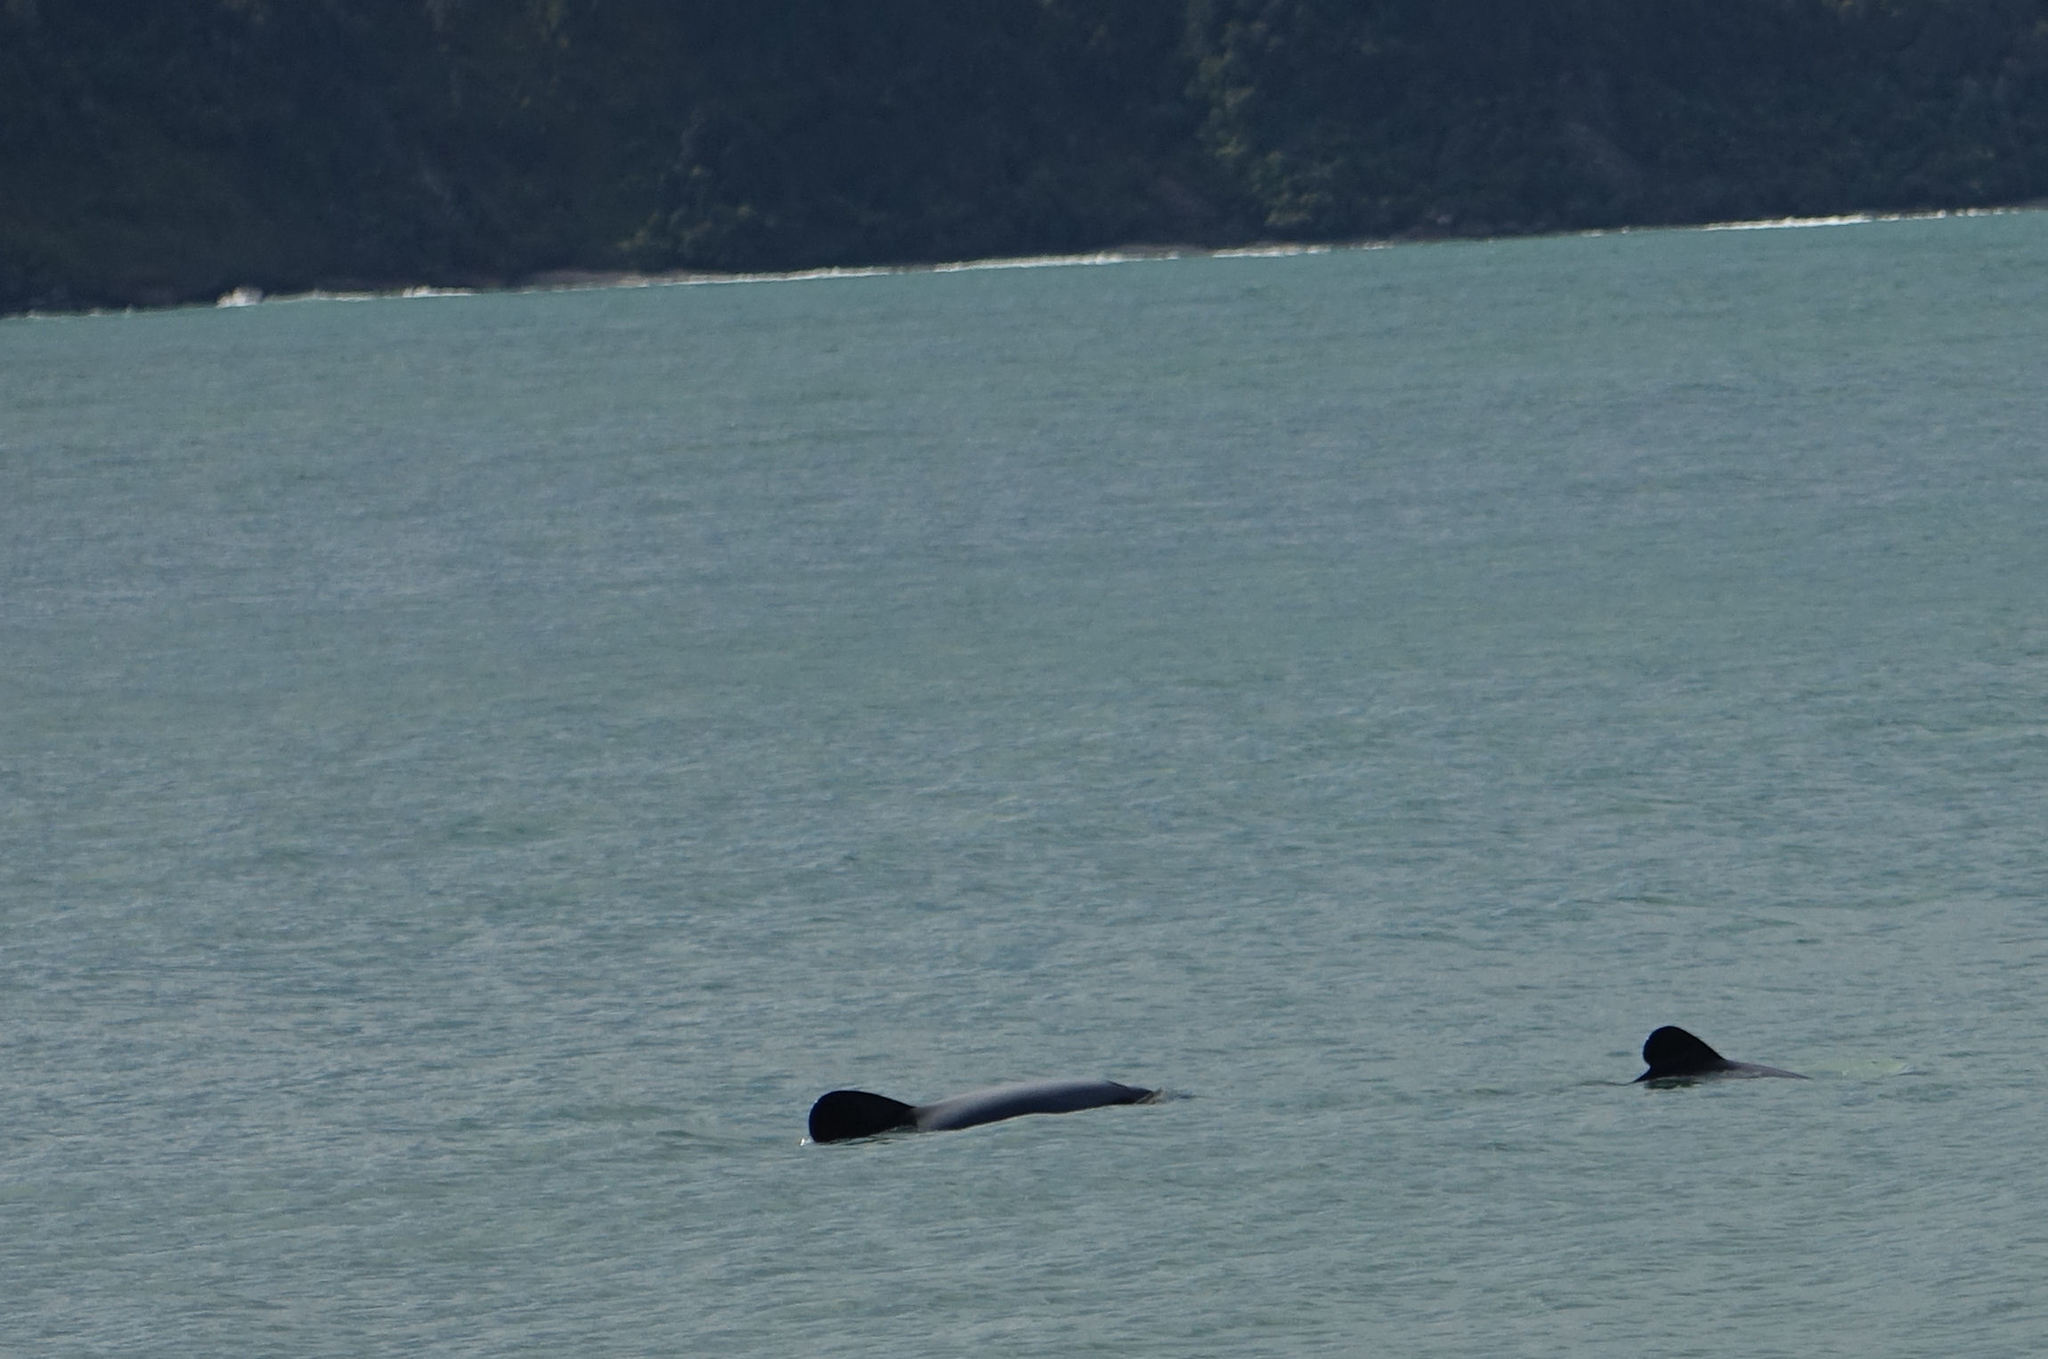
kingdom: Animalia
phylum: Chordata
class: Mammalia
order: Cetacea
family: Delphinidae
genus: Cephalorhynchus
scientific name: Cephalorhynchus hectori
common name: Hector's dolphin
